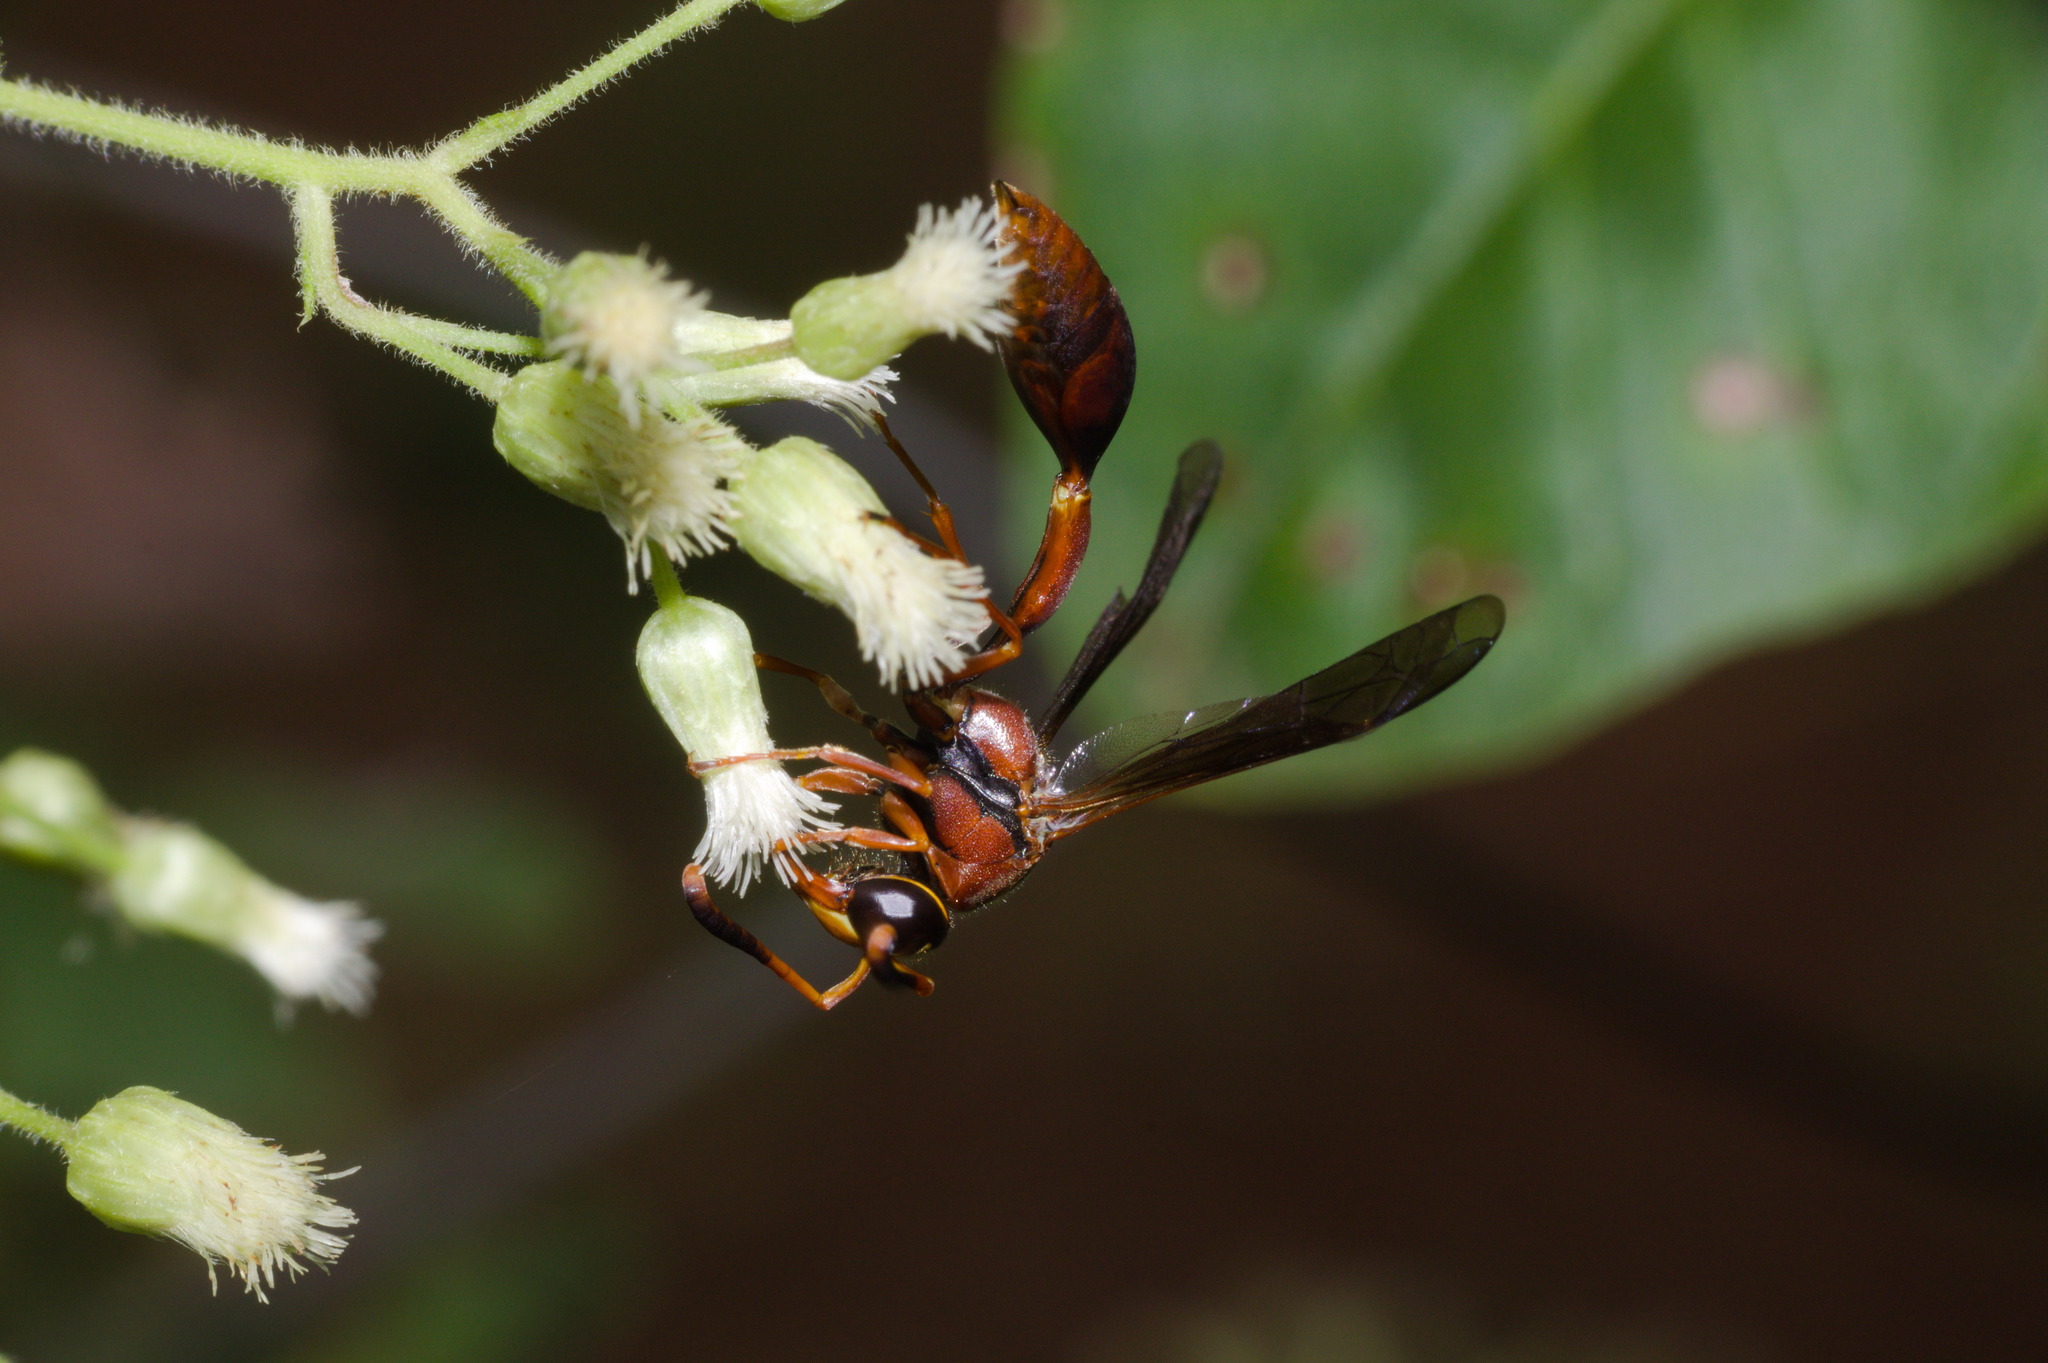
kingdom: Animalia
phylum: Arthropoda
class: Insecta
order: Hymenoptera
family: Eumenidae
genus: Zeta
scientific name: Zeta argillaceum
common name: Potter wasp
